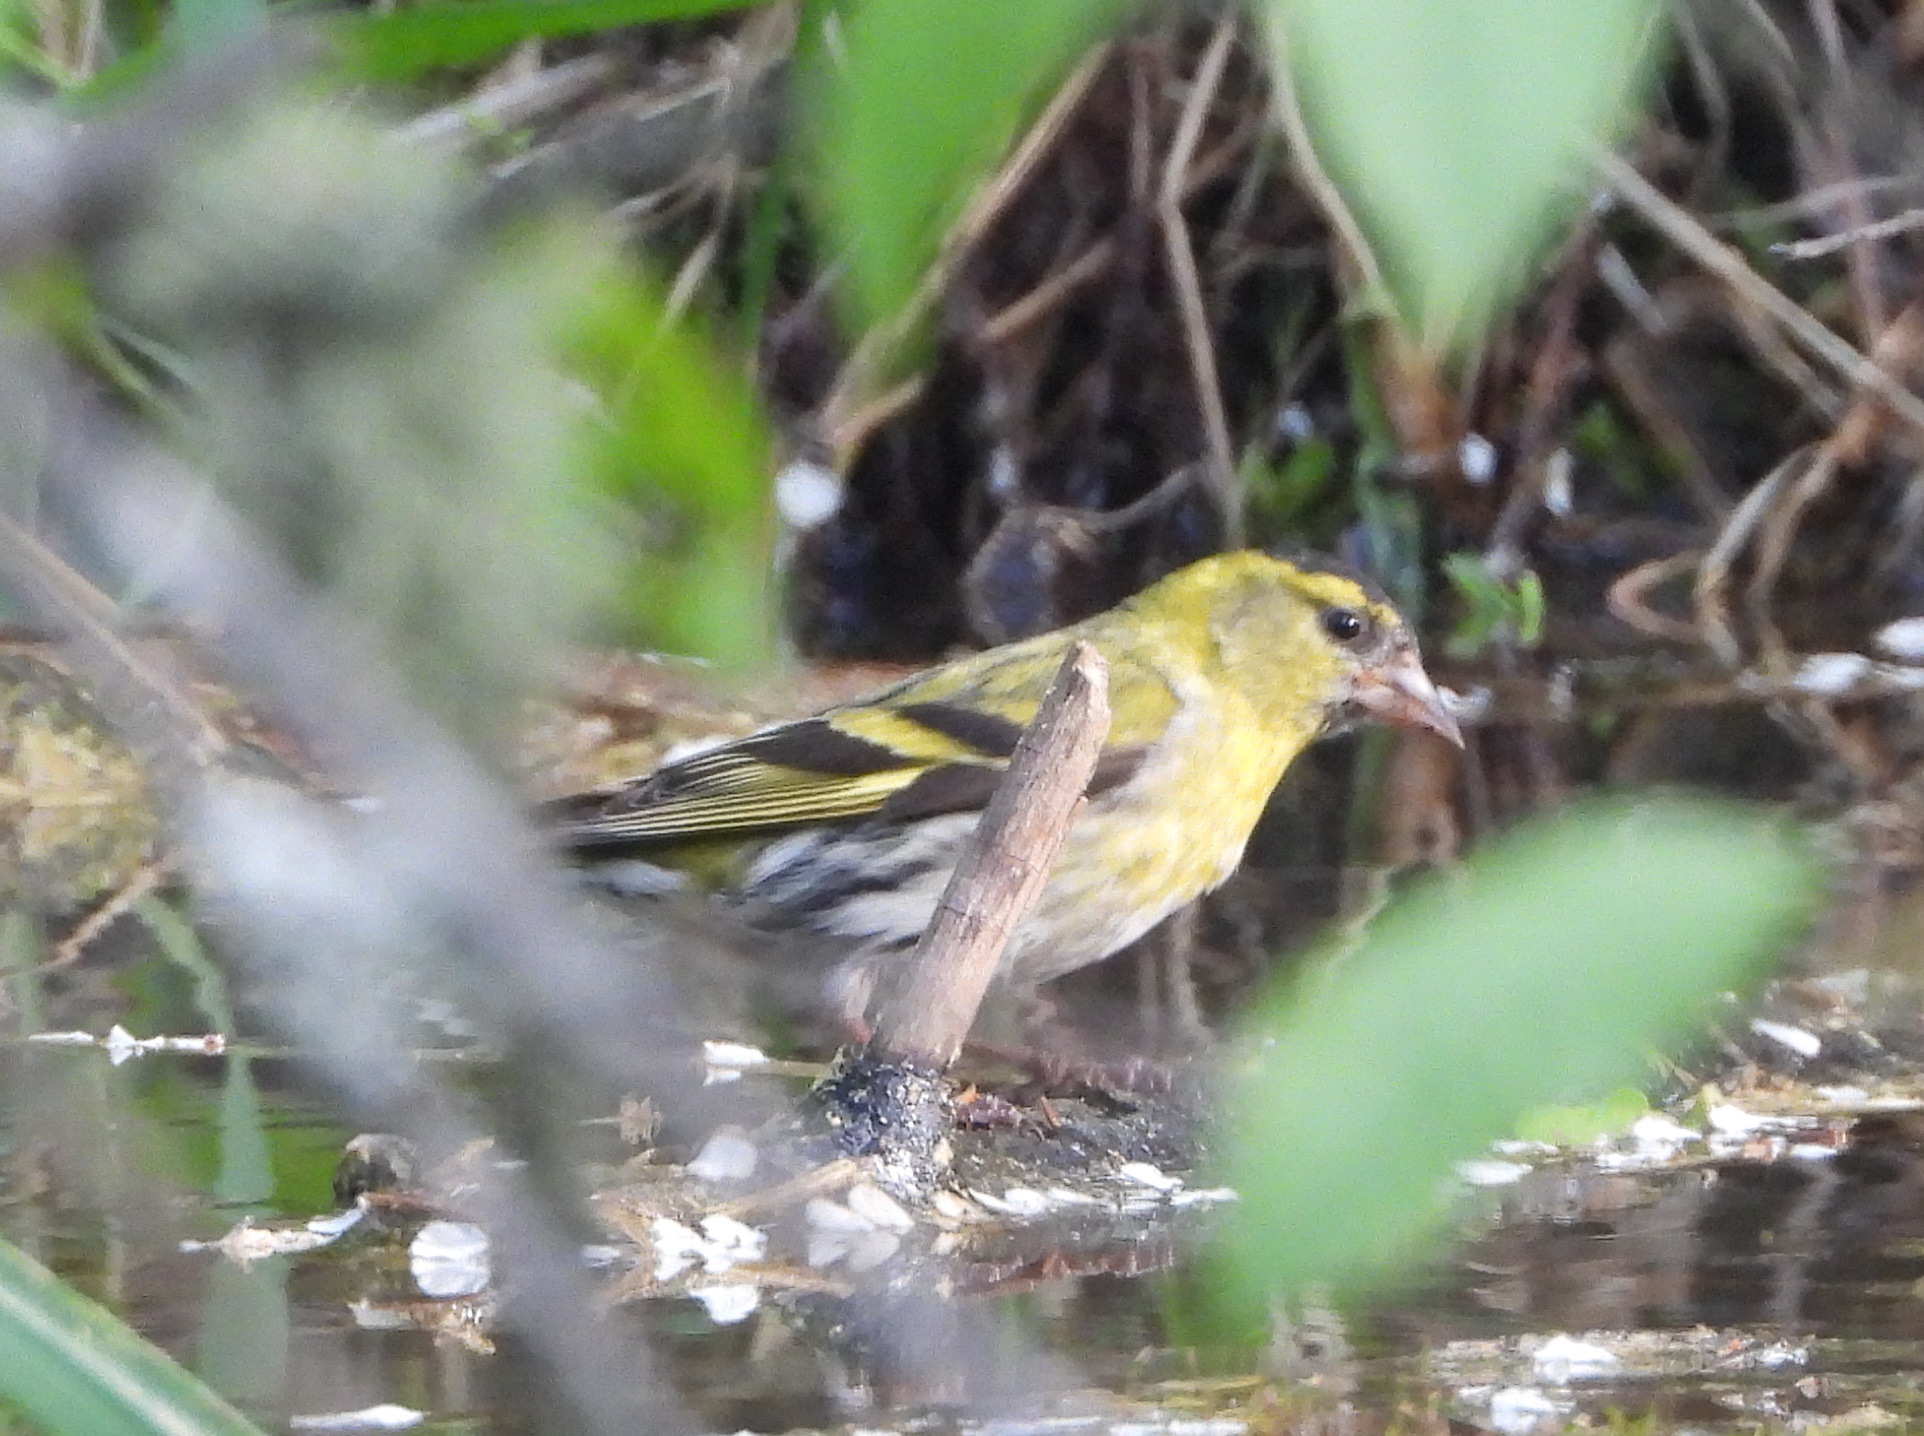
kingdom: Animalia
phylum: Chordata
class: Aves
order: Passeriformes
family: Fringillidae
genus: Spinus
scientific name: Spinus spinus
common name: Eurasian siskin
